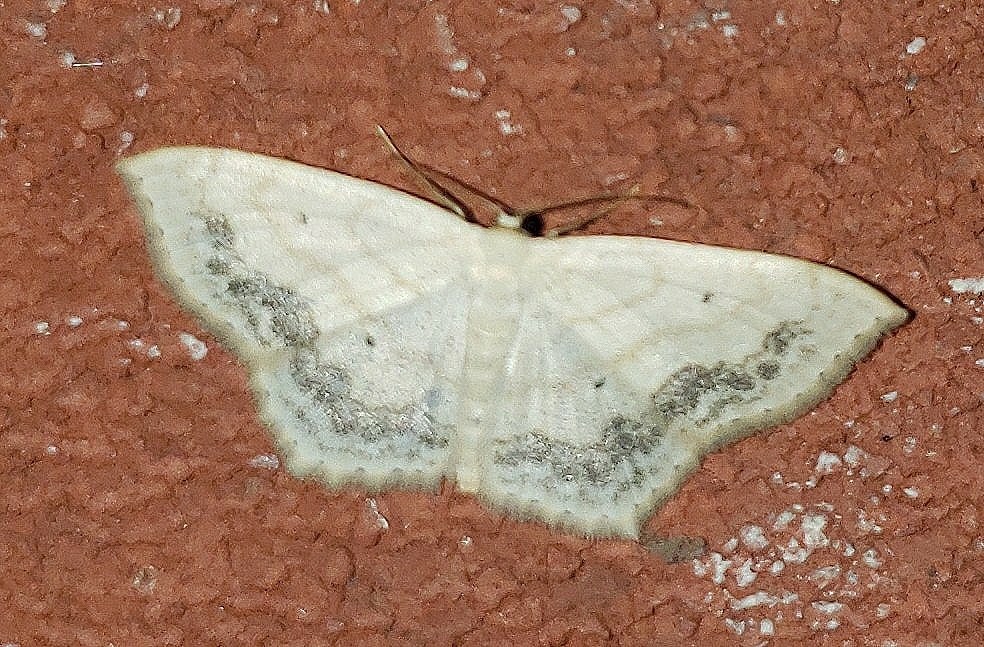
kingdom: Animalia
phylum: Arthropoda
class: Insecta
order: Lepidoptera
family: Geometridae
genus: Scopula
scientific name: Scopula limboundata
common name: Large lace border
